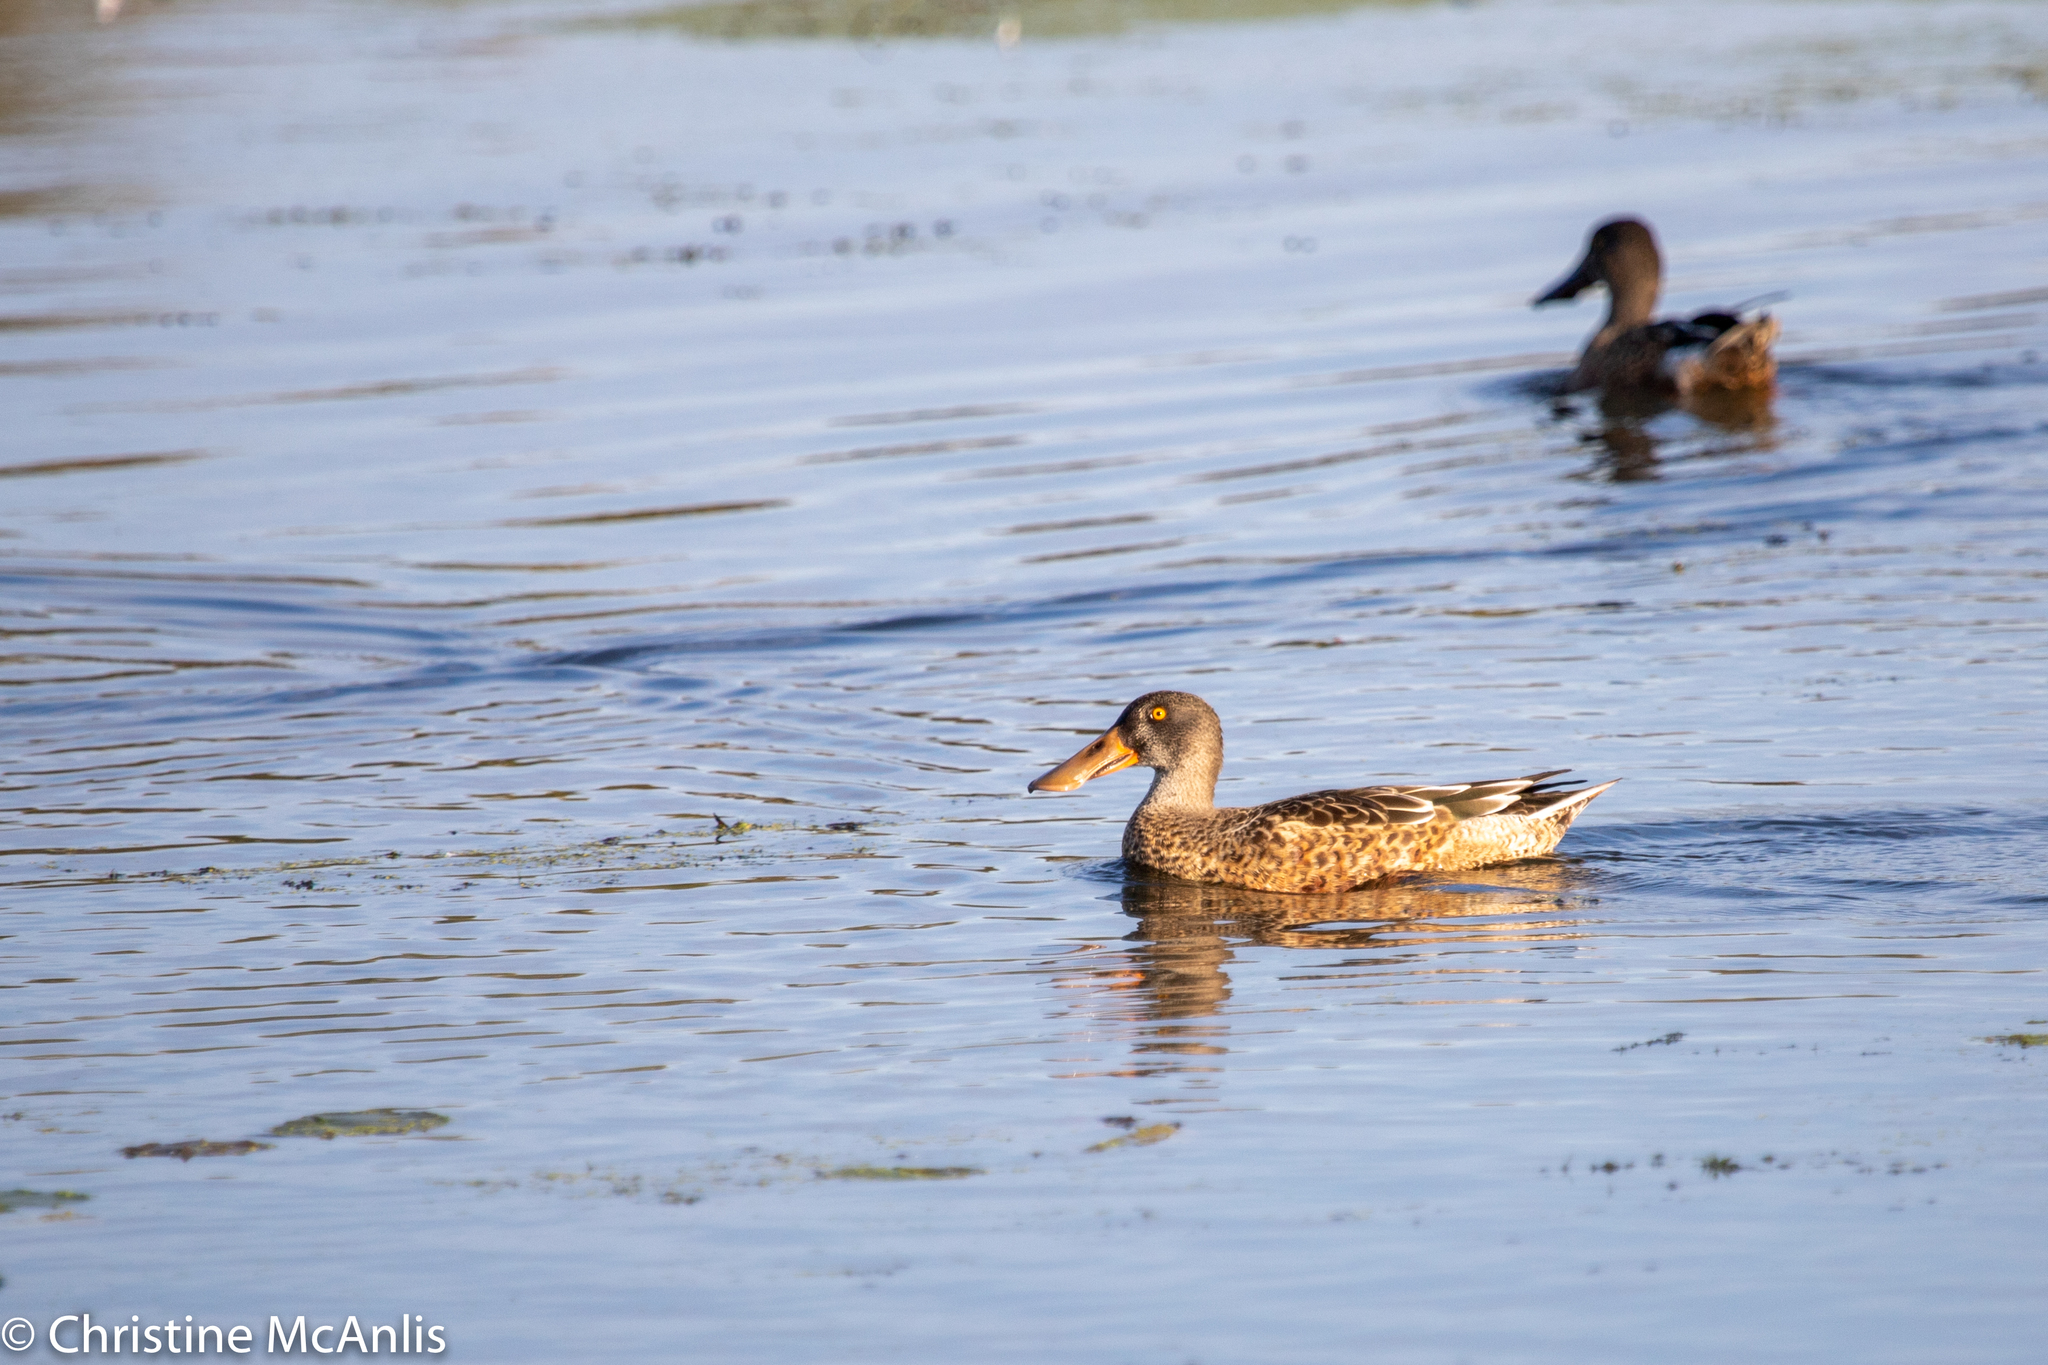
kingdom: Animalia
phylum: Chordata
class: Aves
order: Anseriformes
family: Anatidae
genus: Spatula
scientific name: Spatula clypeata
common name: Northern shoveler
